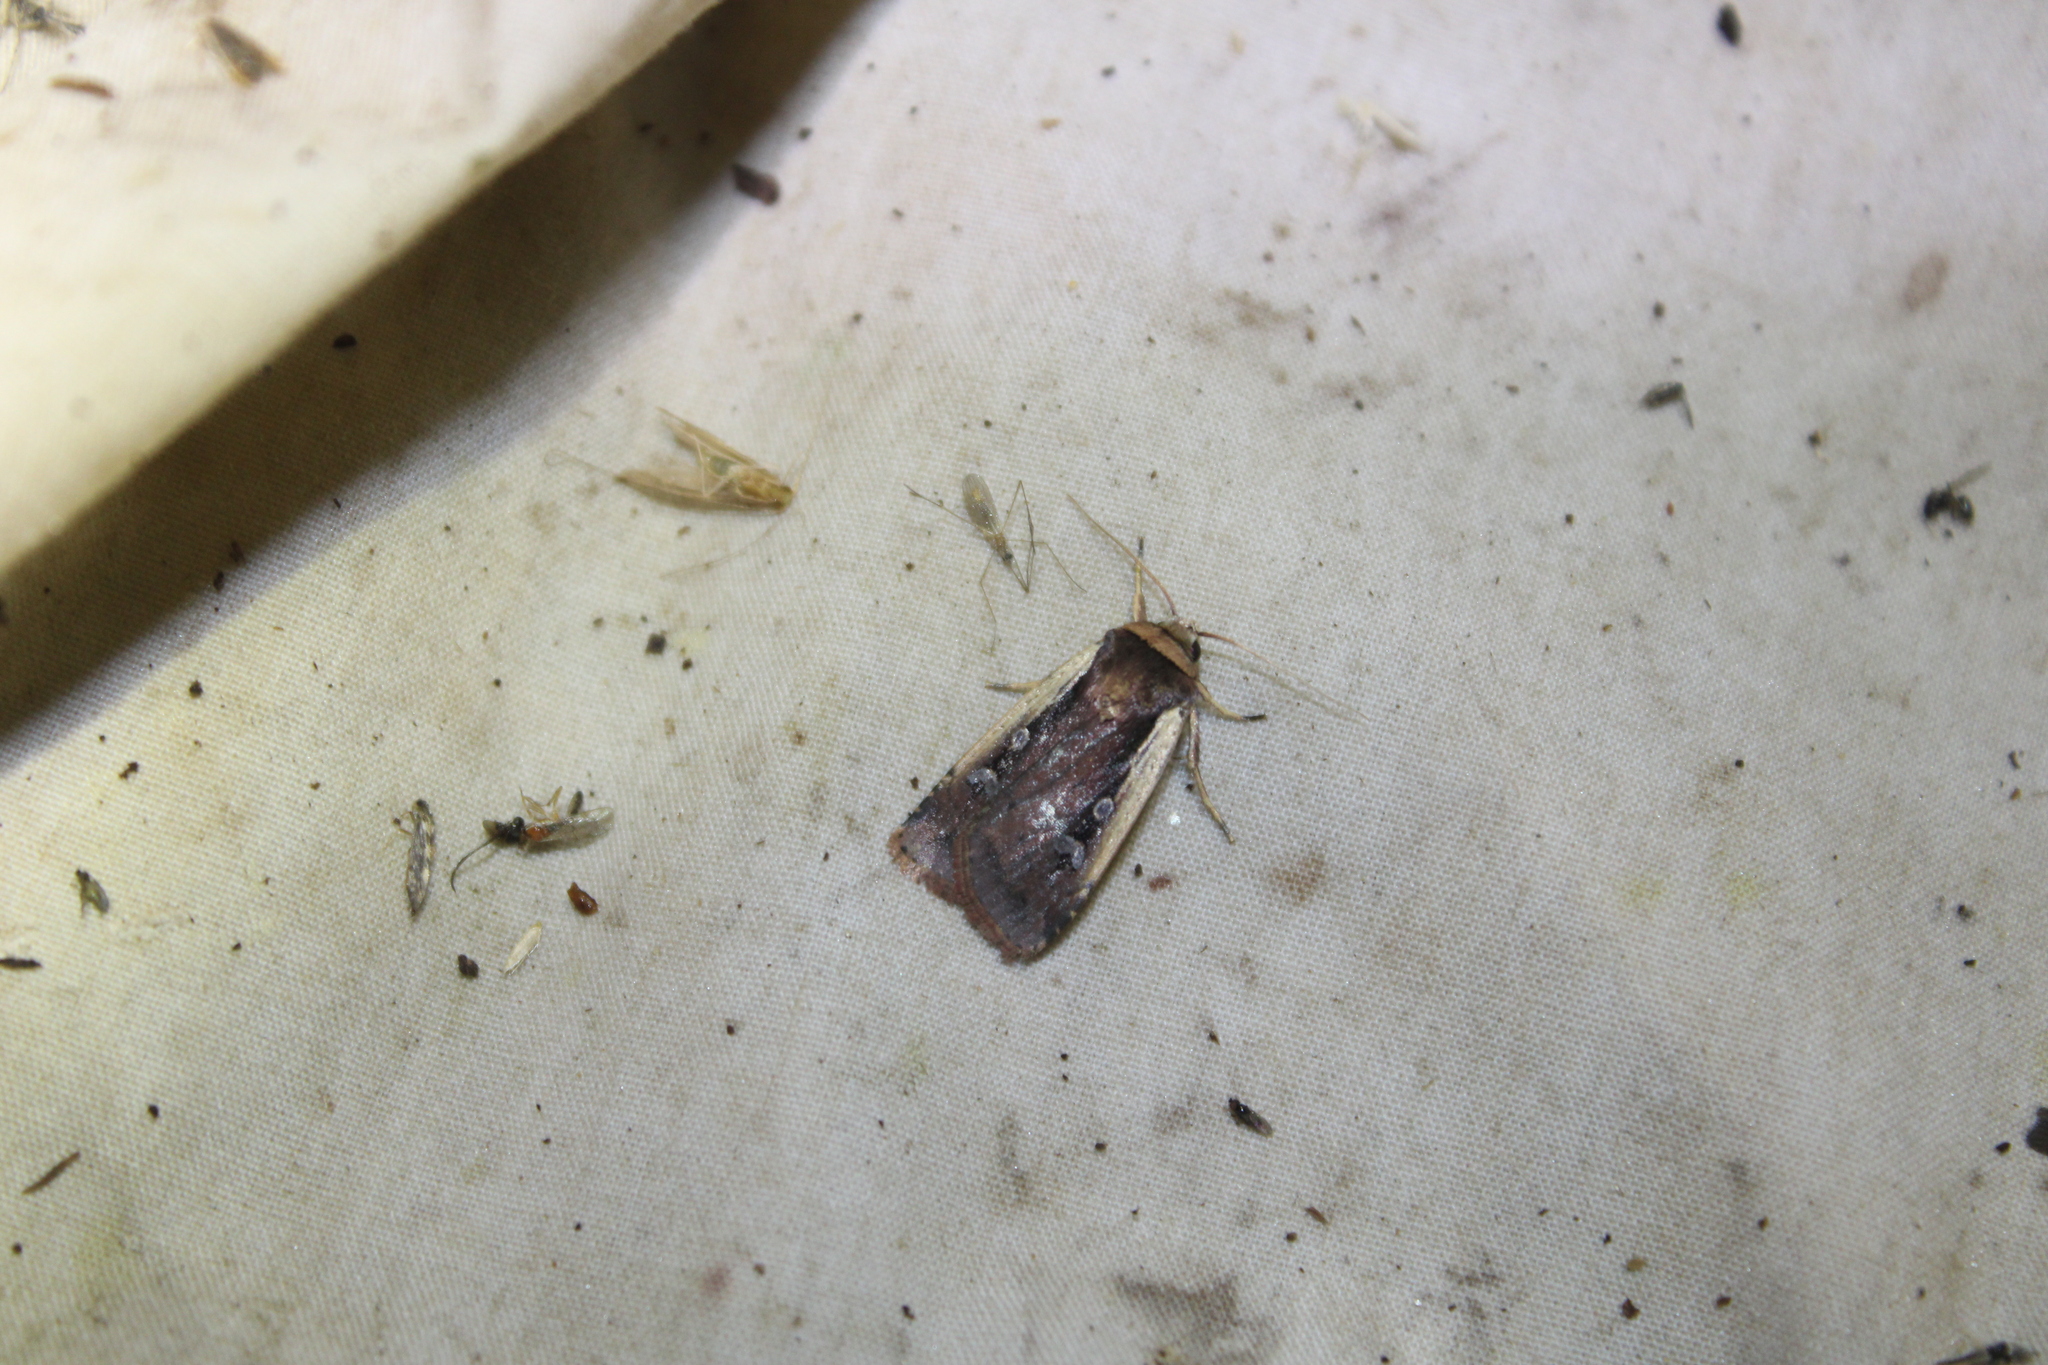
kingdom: Animalia
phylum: Arthropoda
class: Insecta
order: Lepidoptera
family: Noctuidae
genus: Ochropleura
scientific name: Ochropleura implecta
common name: Flame-shouldered dart
